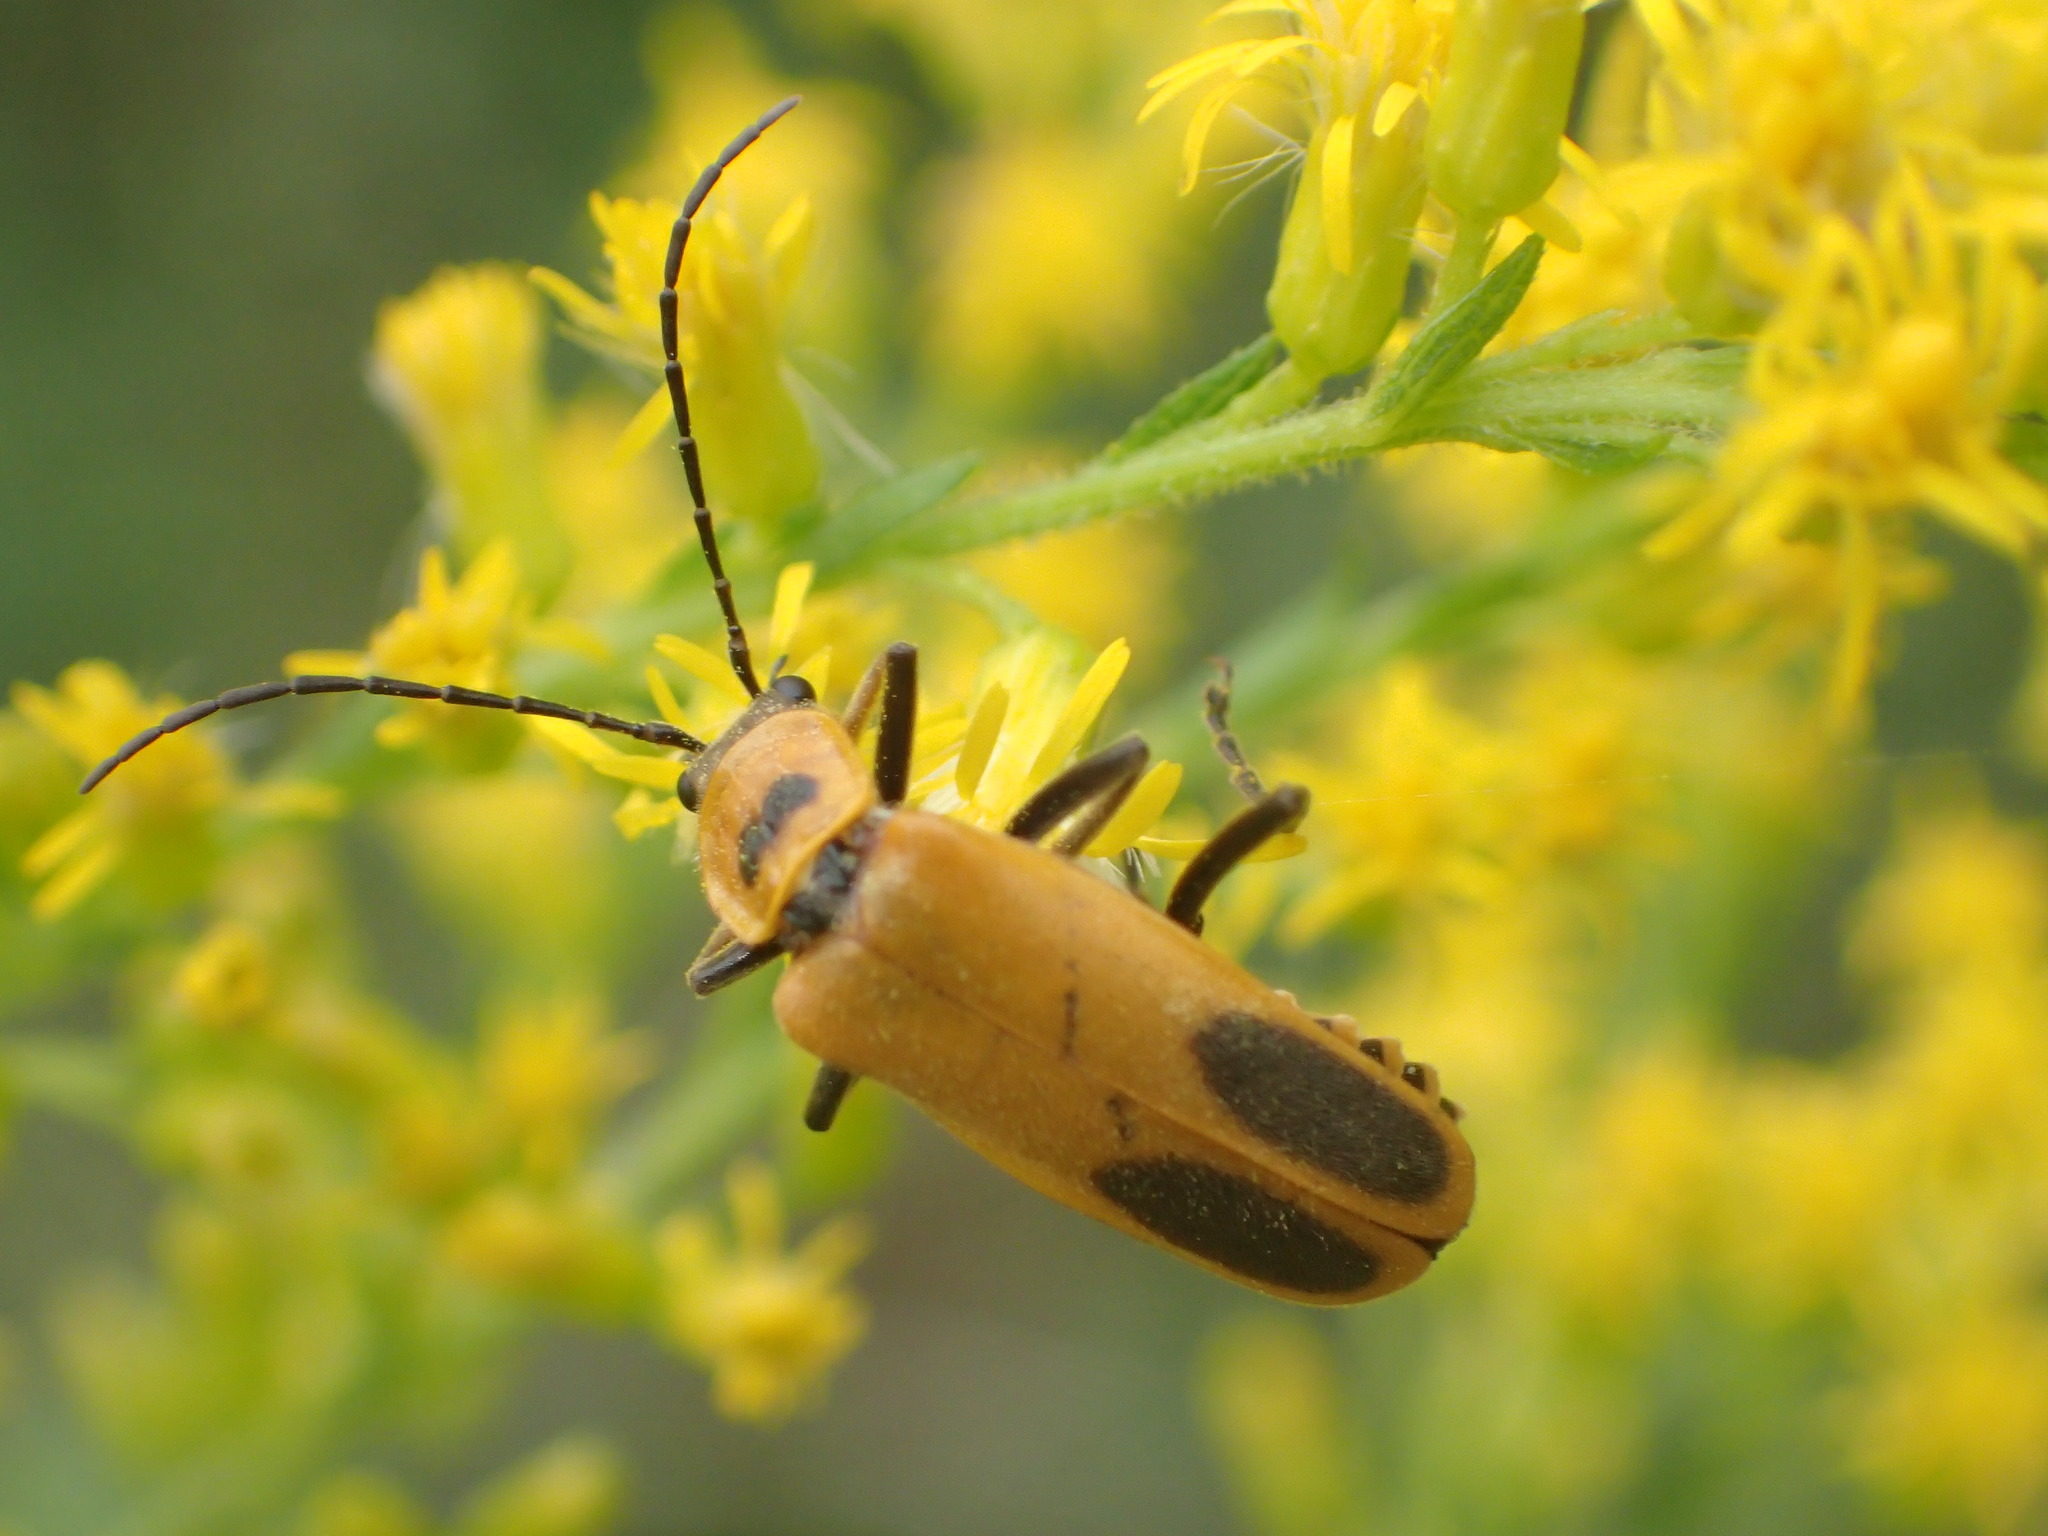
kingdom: Animalia
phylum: Arthropoda
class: Insecta
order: Coleoptera
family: Cantharidae
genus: Chauliognathus
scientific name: Chauliognathus pensylvanicus
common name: Goldenrod soldier beetle
